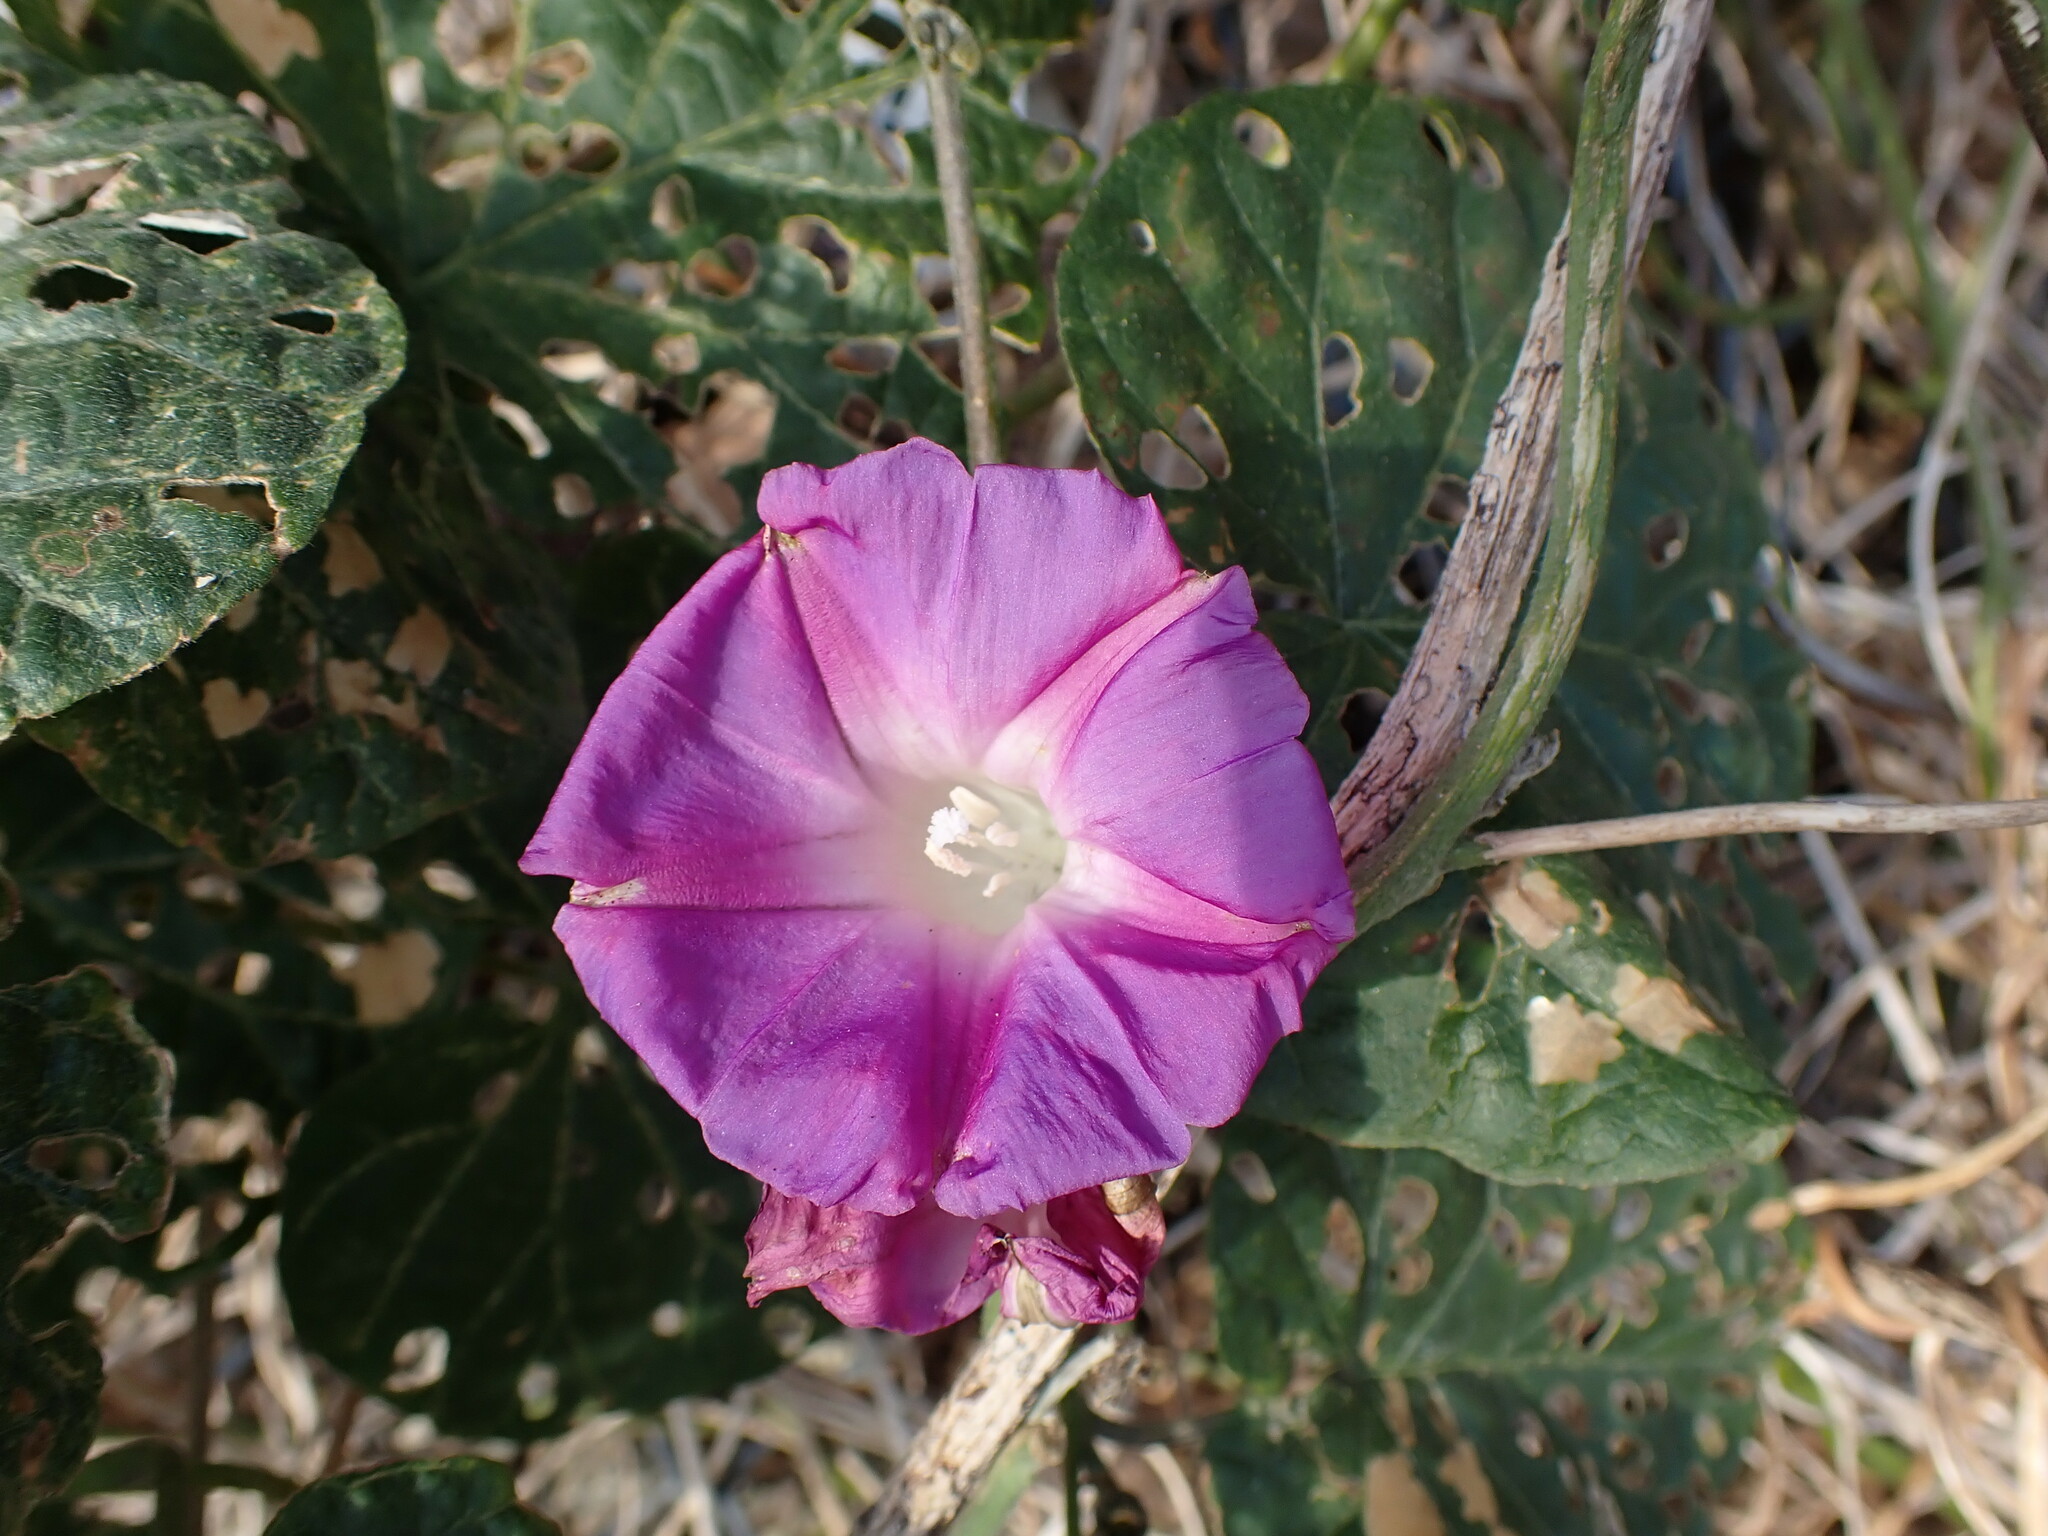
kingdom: Plantae
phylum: Tracheophyta
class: Magnoliopsida
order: Solanales
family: Convolvulaceae
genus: Ipomoea
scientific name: Ipomoea indica
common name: Blue dawnflower
